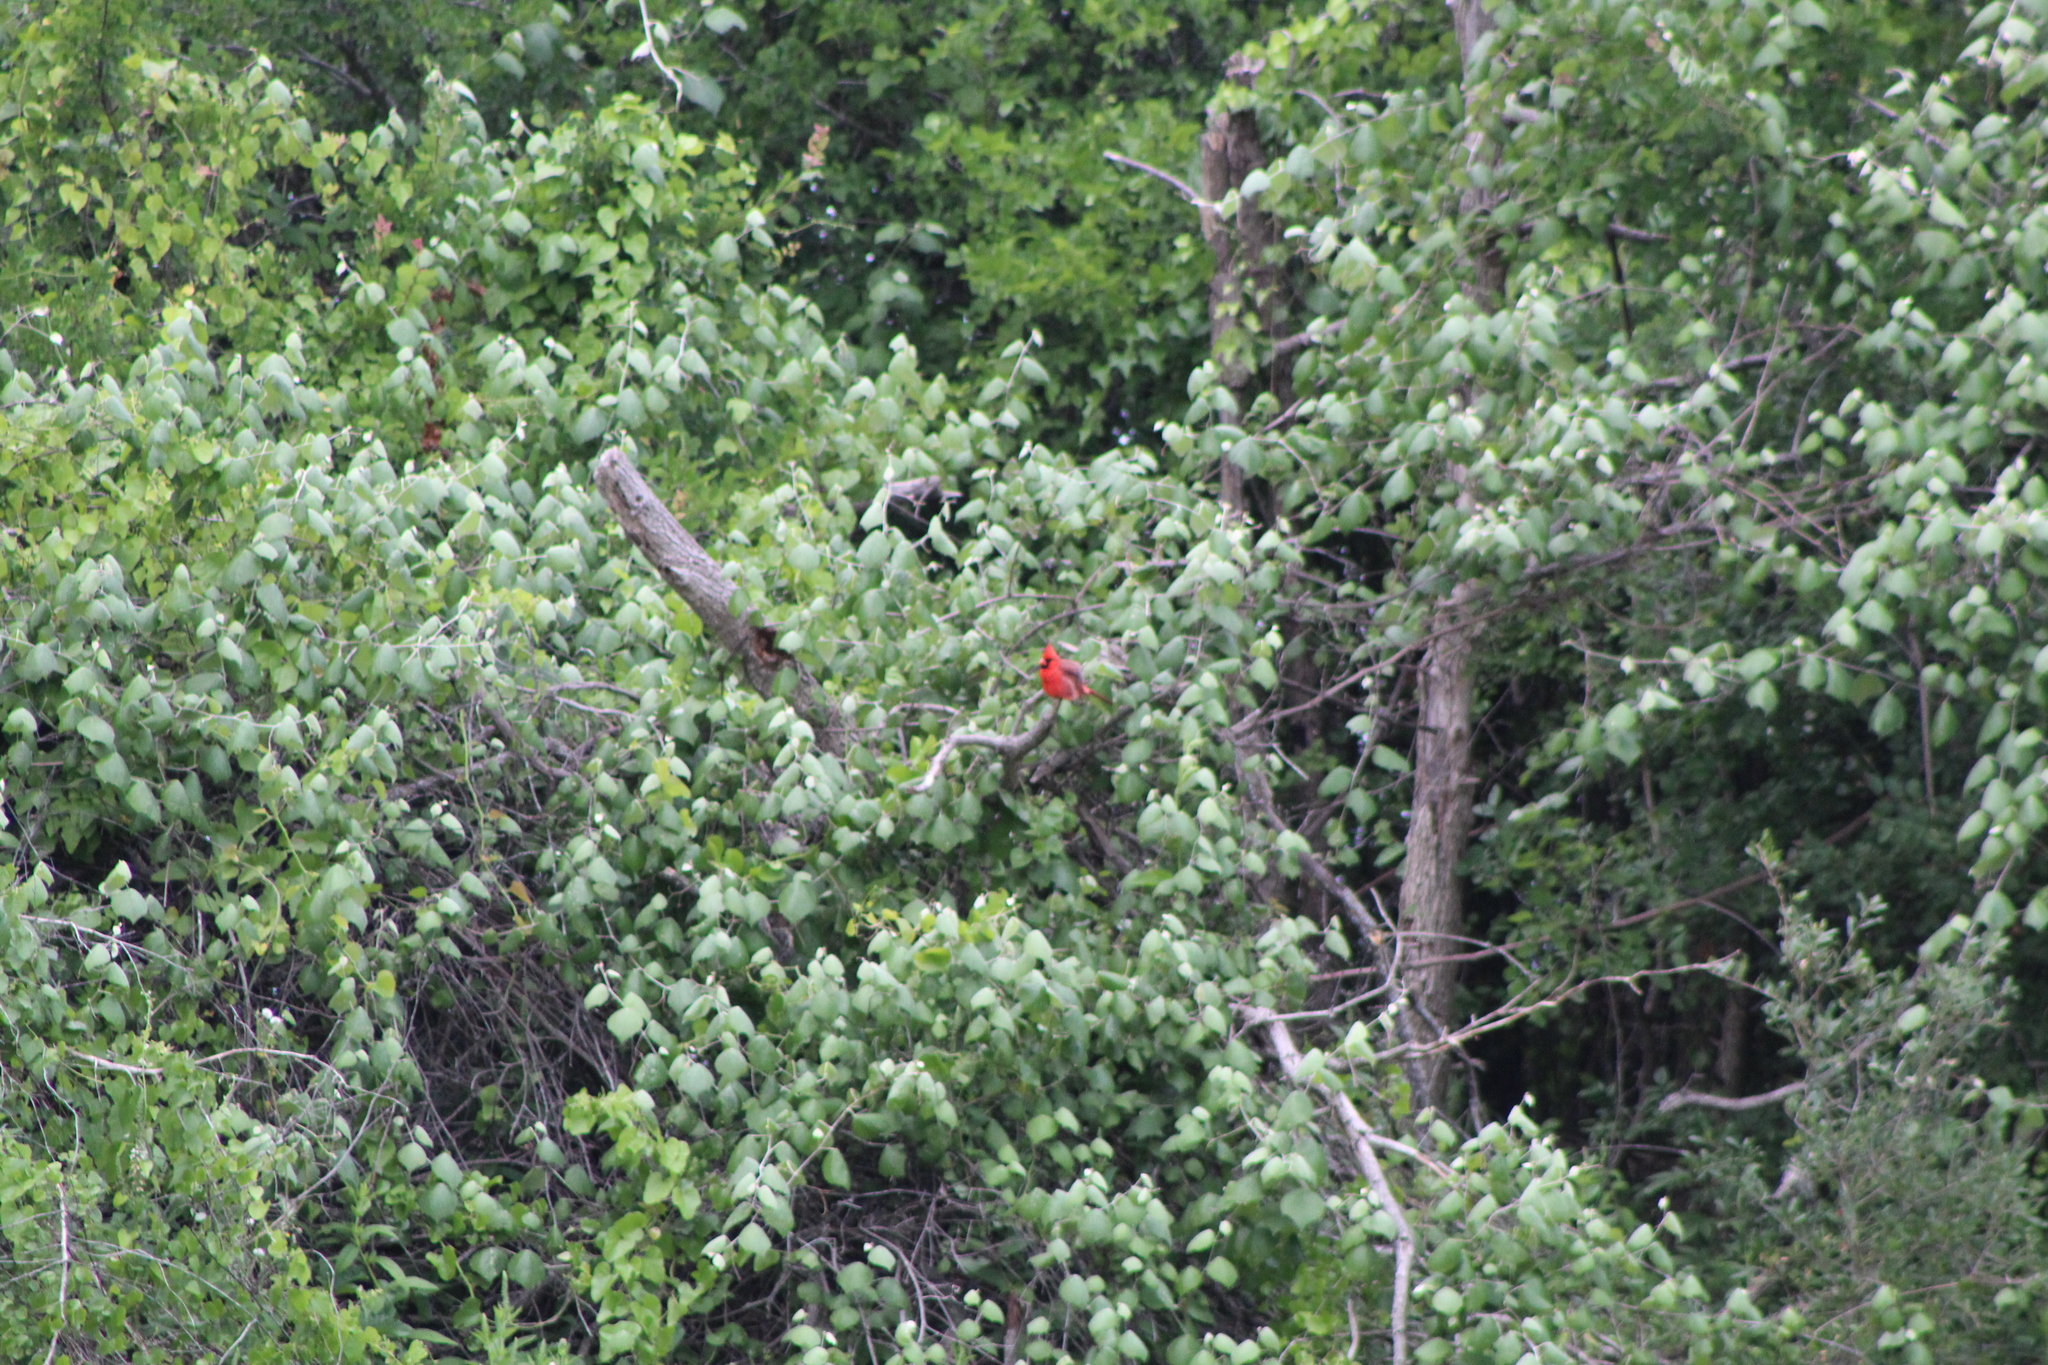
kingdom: Animalia
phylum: Chordata
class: Aves
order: Passeriformes
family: Cardinalidae
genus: Cardinalis
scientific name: Cardinalis cardinalis
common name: Northern cardinal
